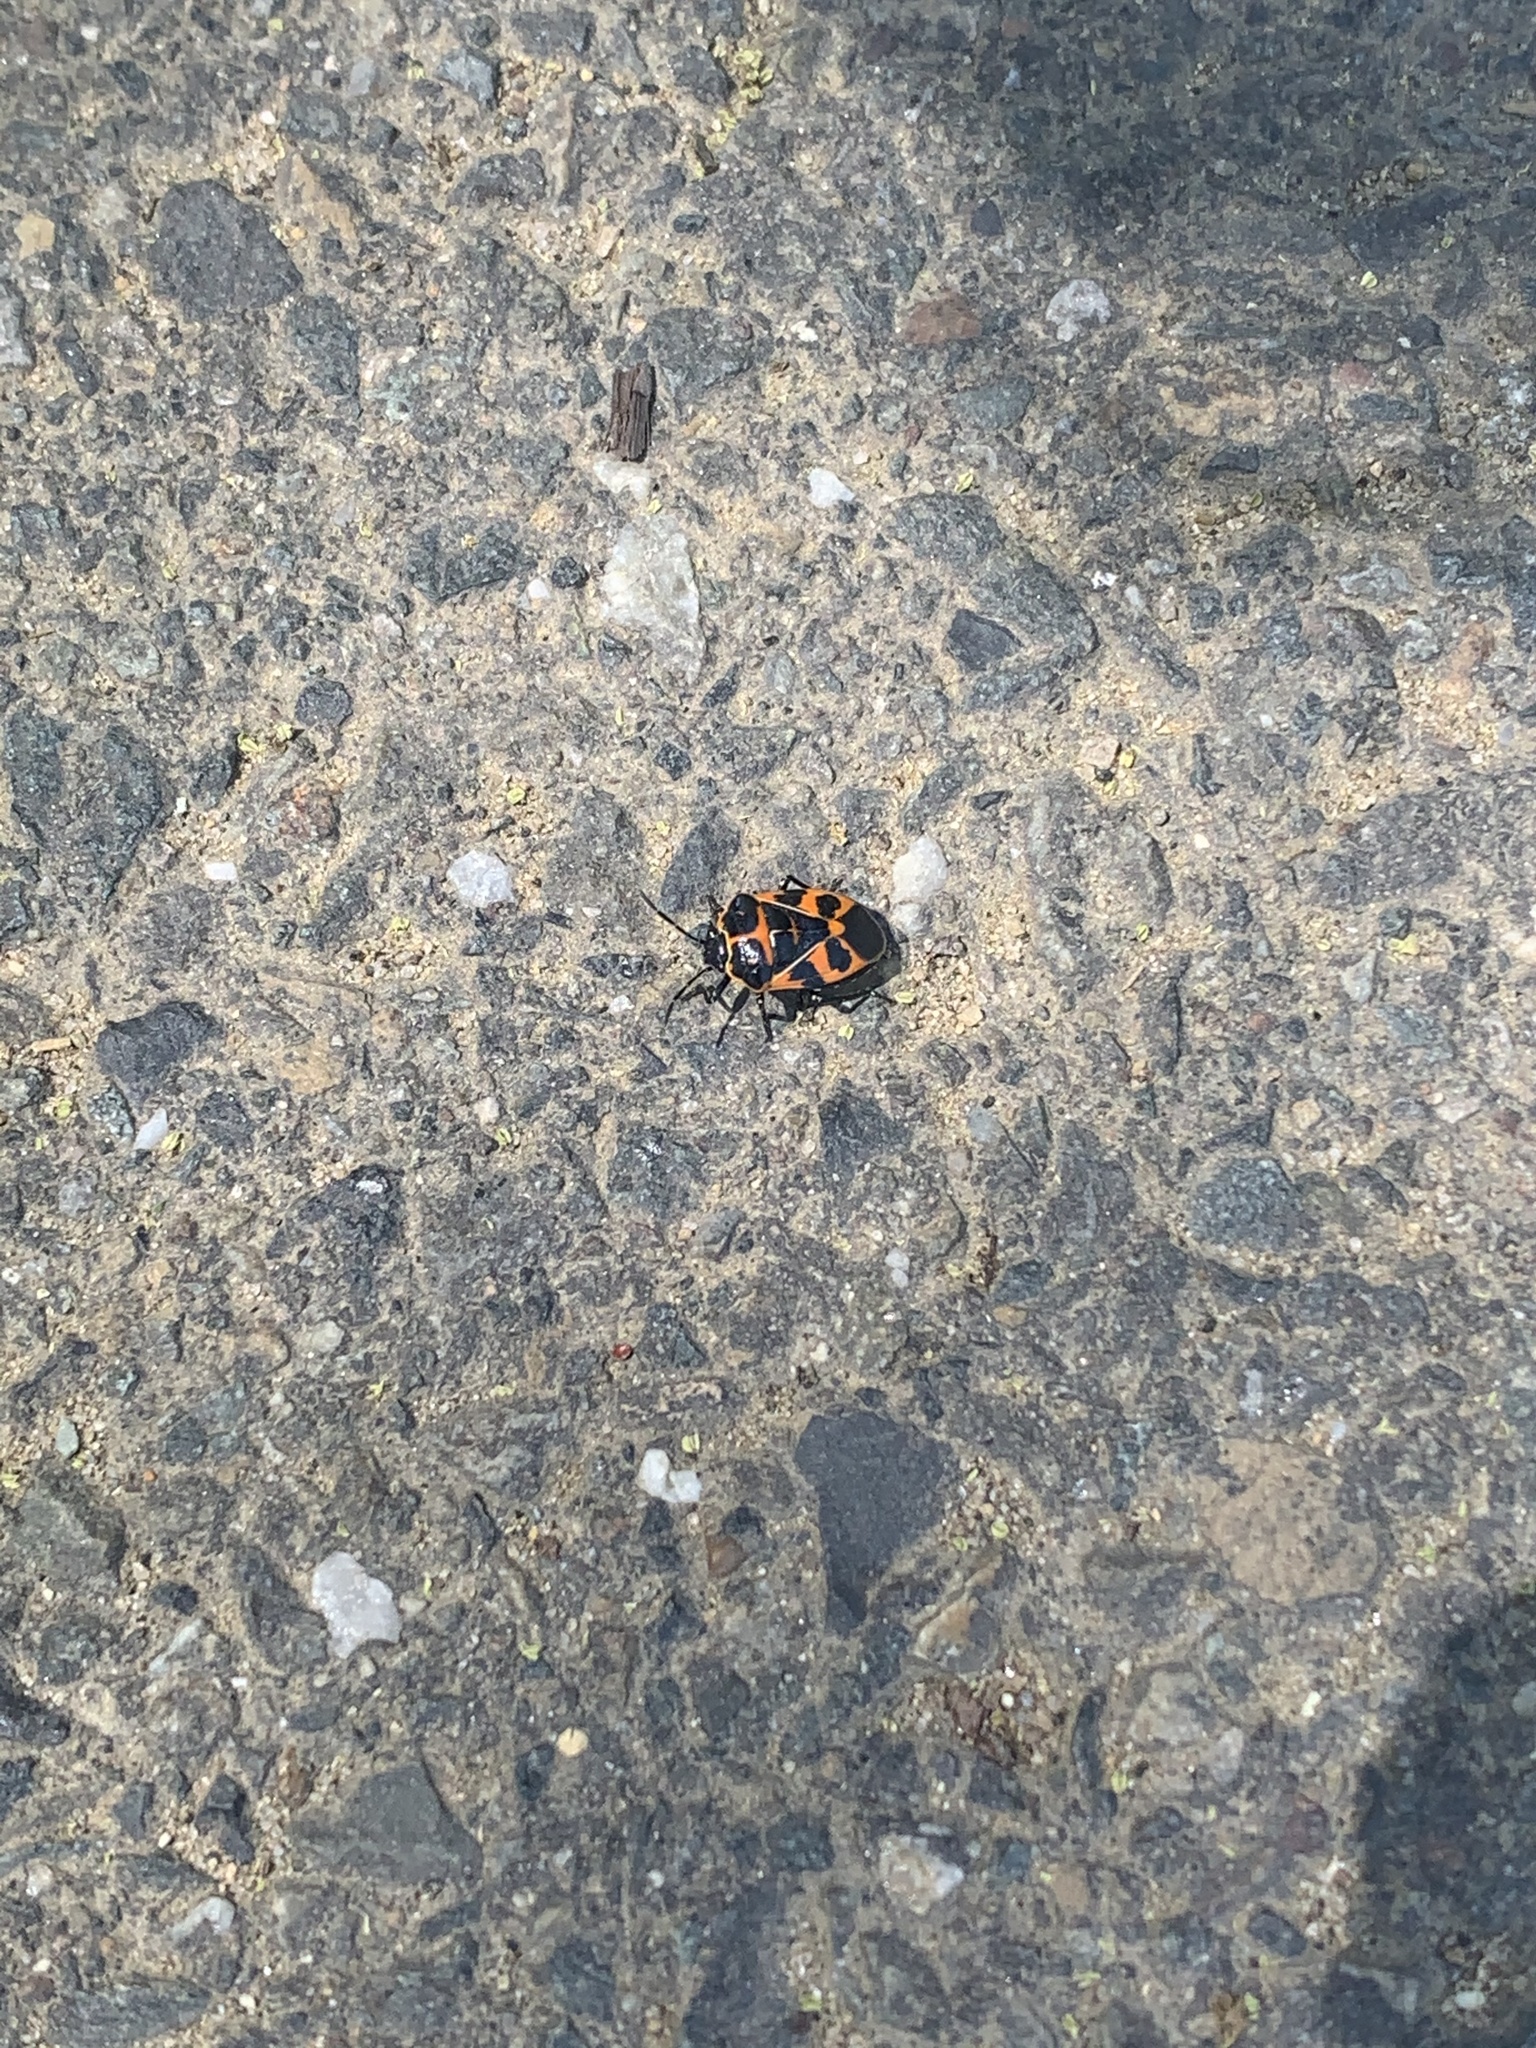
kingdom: Animalia
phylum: Arthropoda
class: Insecta
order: Hemiptera
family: Pentatomidae
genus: Murgantia
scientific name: Murgantia histrionica
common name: Harlequin bug
